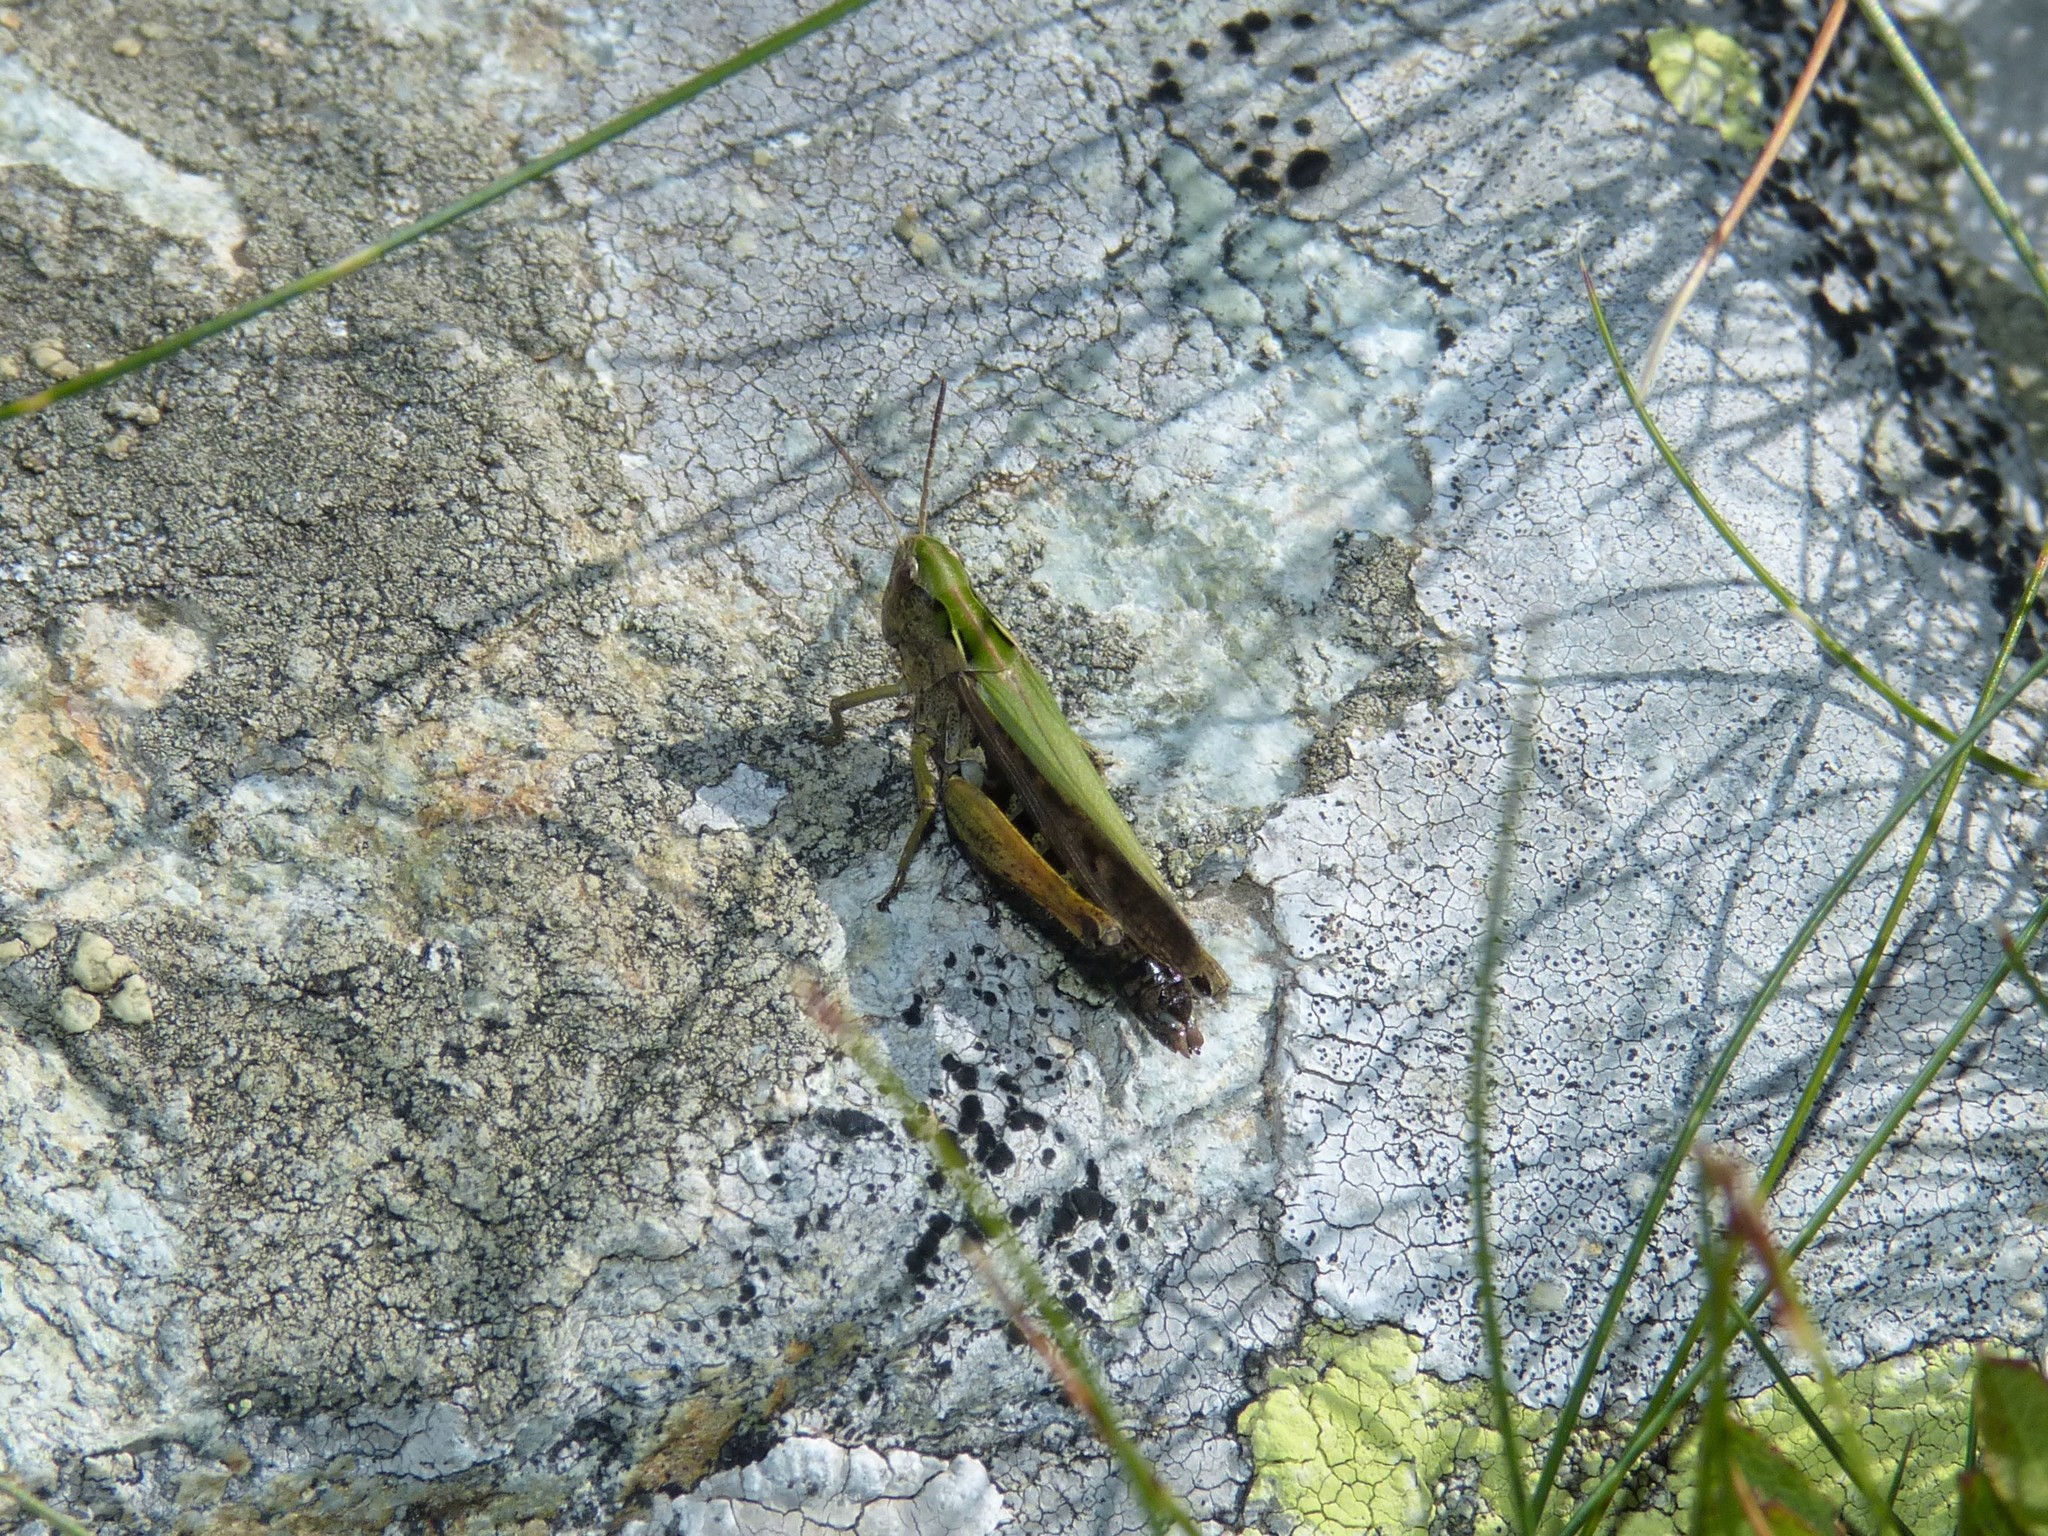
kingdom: Animalia
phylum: Arthropoda
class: Insecta
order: Orthoptera
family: Acrididae
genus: Omocestus
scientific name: Omocestus viridulus
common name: Common green grasshopper
